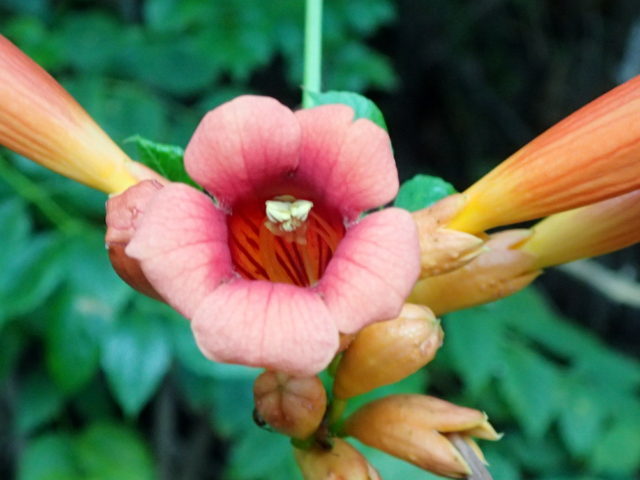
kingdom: Plantae
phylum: Tracheophyta
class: Magnoliopsida
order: Lamiales
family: Bignoniaceae
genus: Campsis
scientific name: Campsis radicans
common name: Trumpet-creeper
